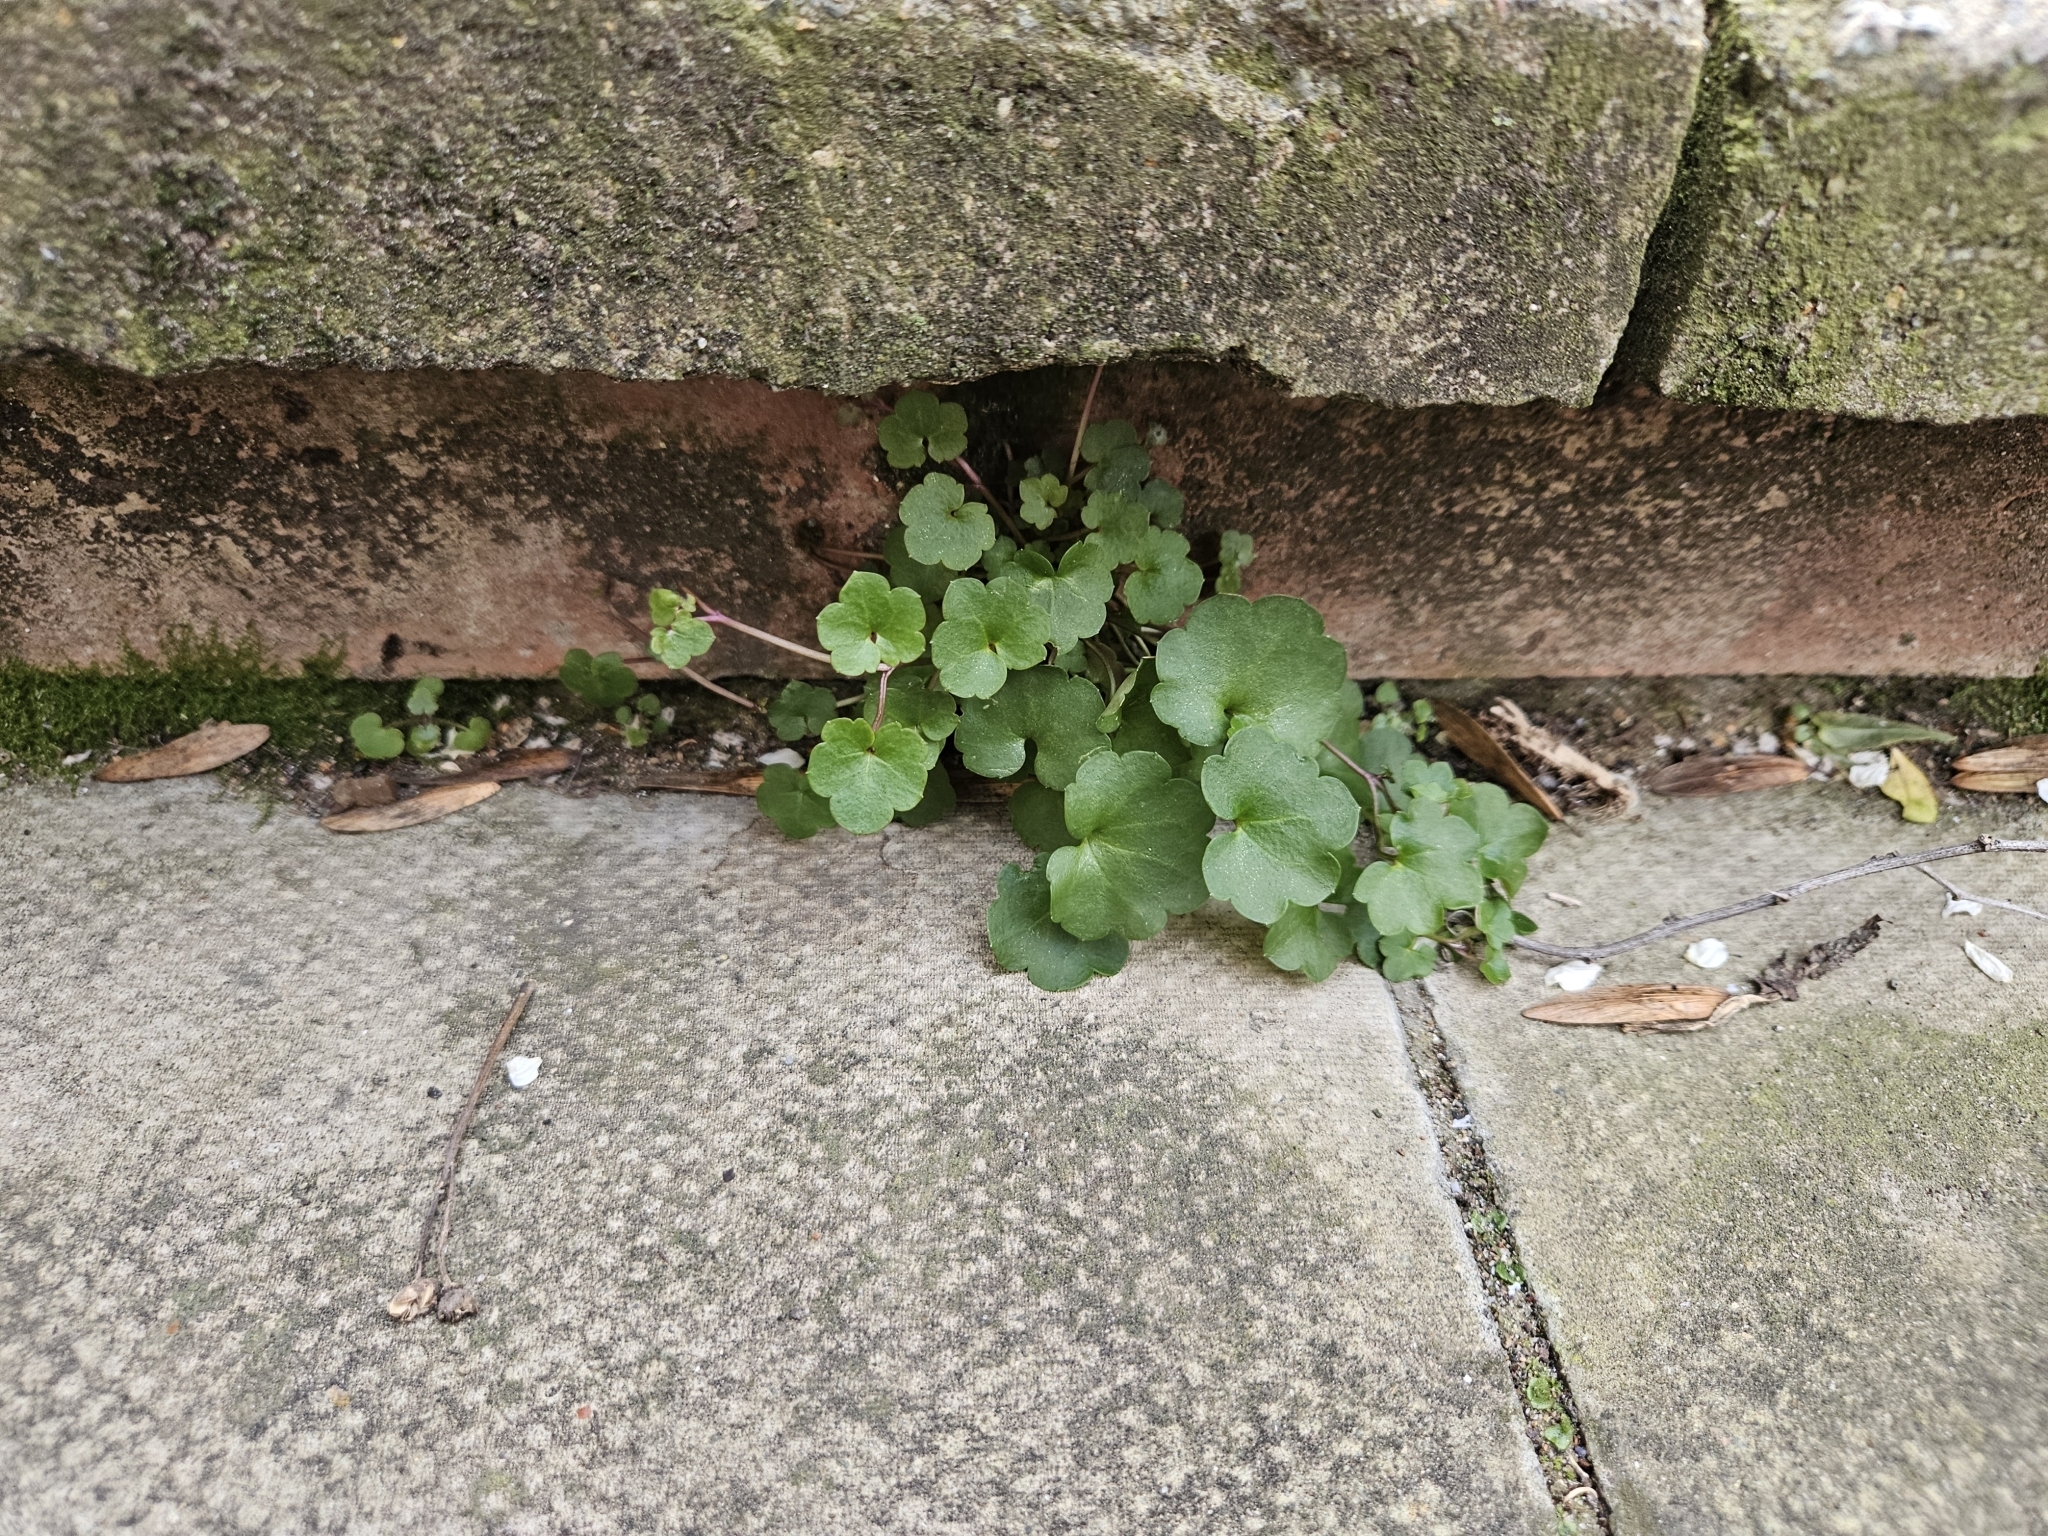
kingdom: Plantae
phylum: Tracheophyta
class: Magnoliopsida
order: Lamiales
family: Plantaginaceae
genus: Cymbalaria
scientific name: Cymbalaria muralis
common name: Ivy-leaved toadflax
